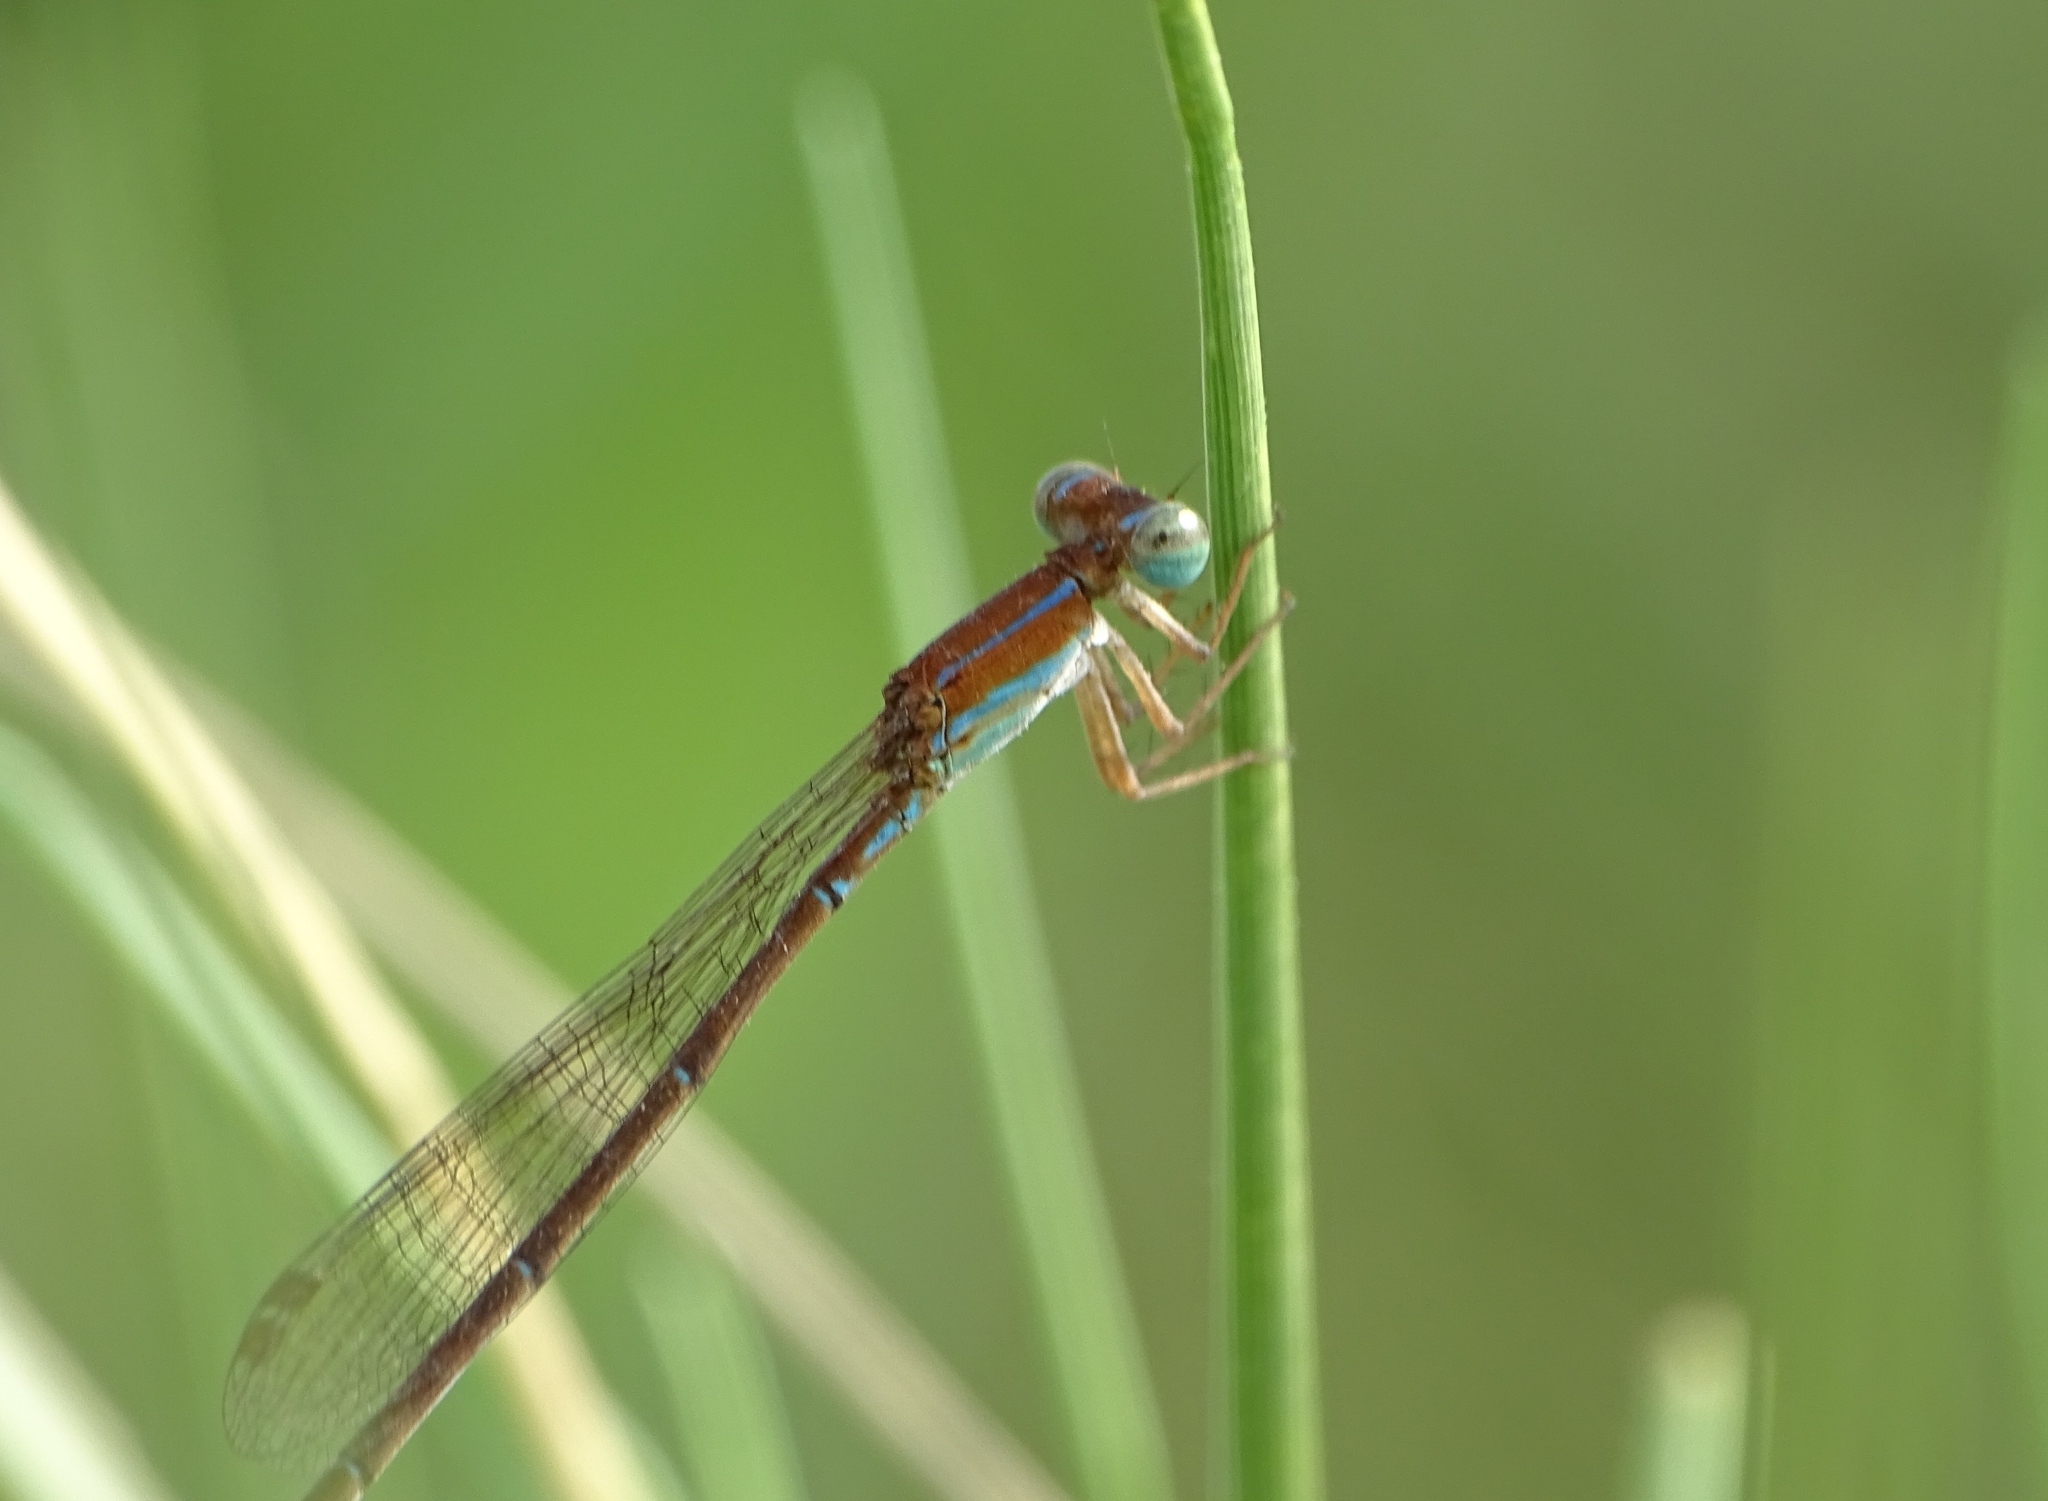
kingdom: Animalia
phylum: Arthropoda
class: Insecta
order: Odonata
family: Coenagrionidae
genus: Mortonagrion
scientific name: Mortonagrion varralli
